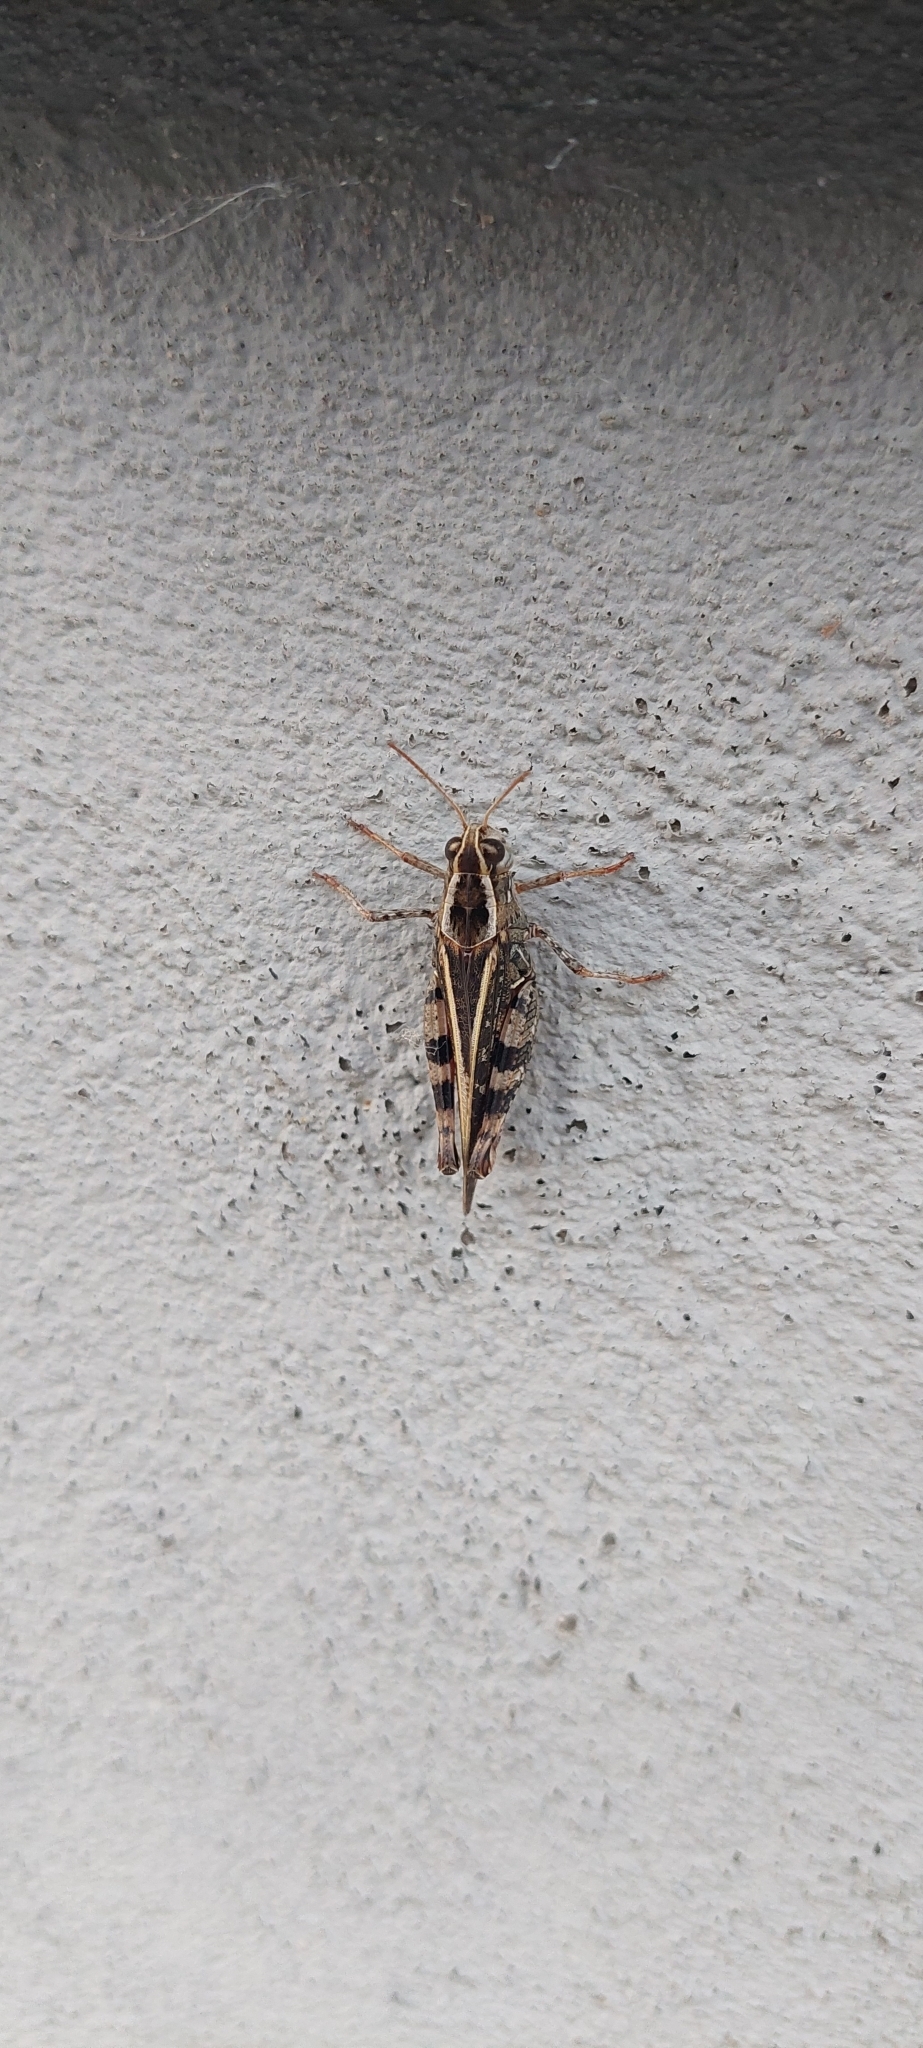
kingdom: Animalia
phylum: Arthropoda
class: Insecta
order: Orthoptera
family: Acrididae
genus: Calliptamus
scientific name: Calliptamus italicus
